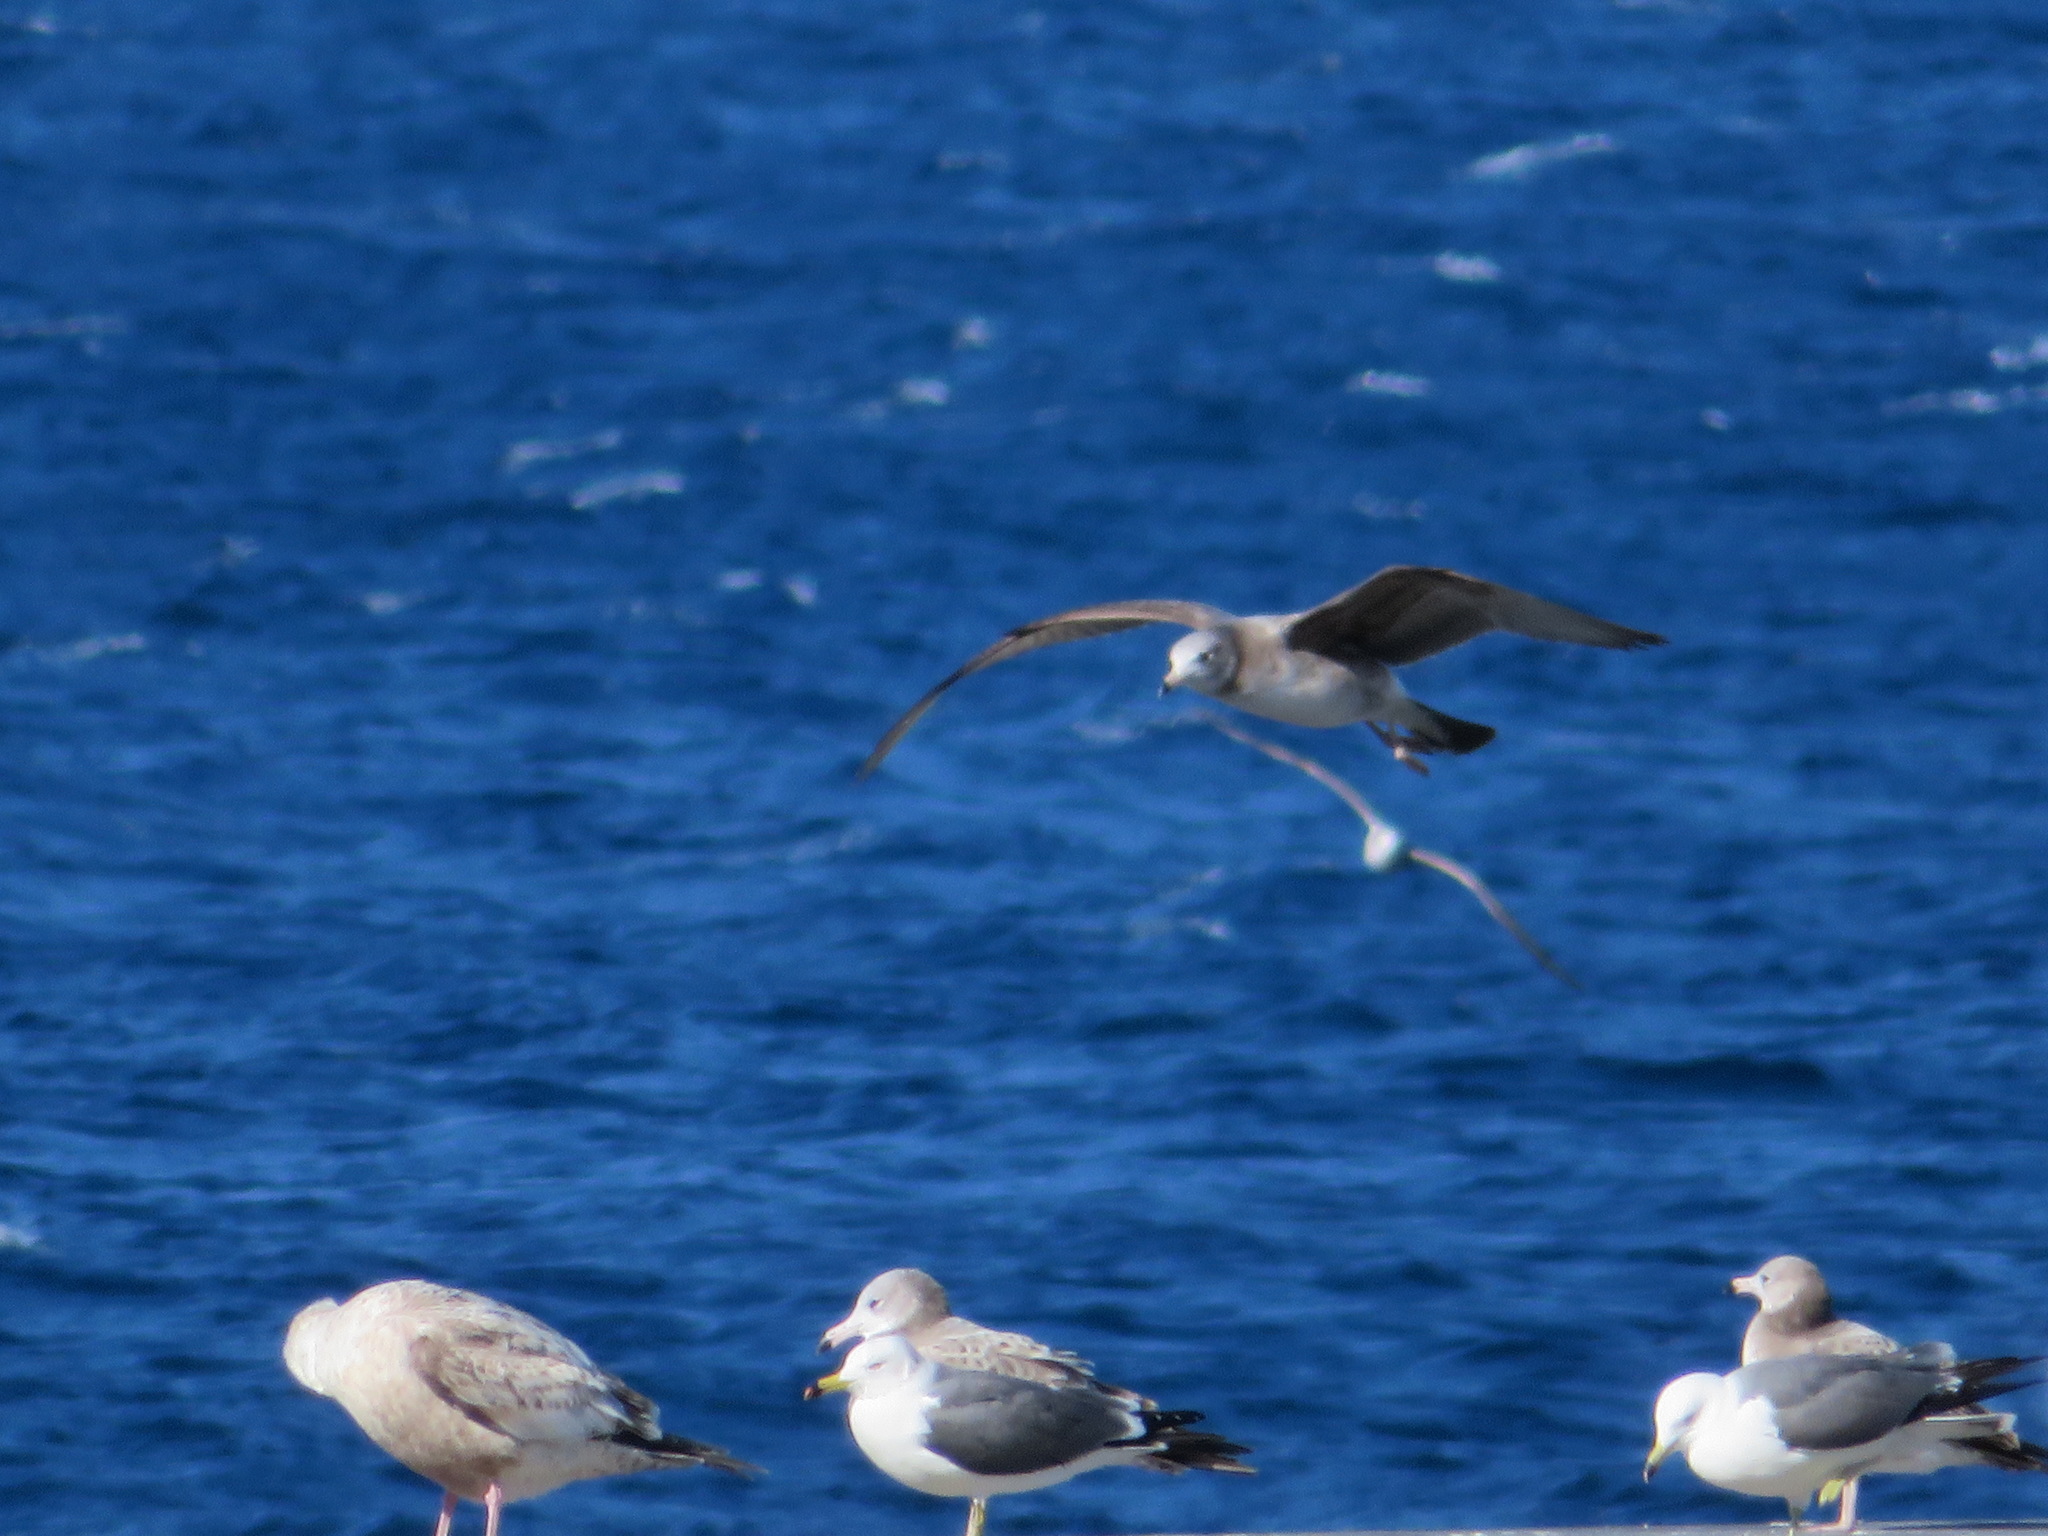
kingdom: Animalia
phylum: Chordata
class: Aves
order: Charadriiformes
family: Laridae
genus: Larus
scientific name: Larus crassirostris
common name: Black-tailed gull
